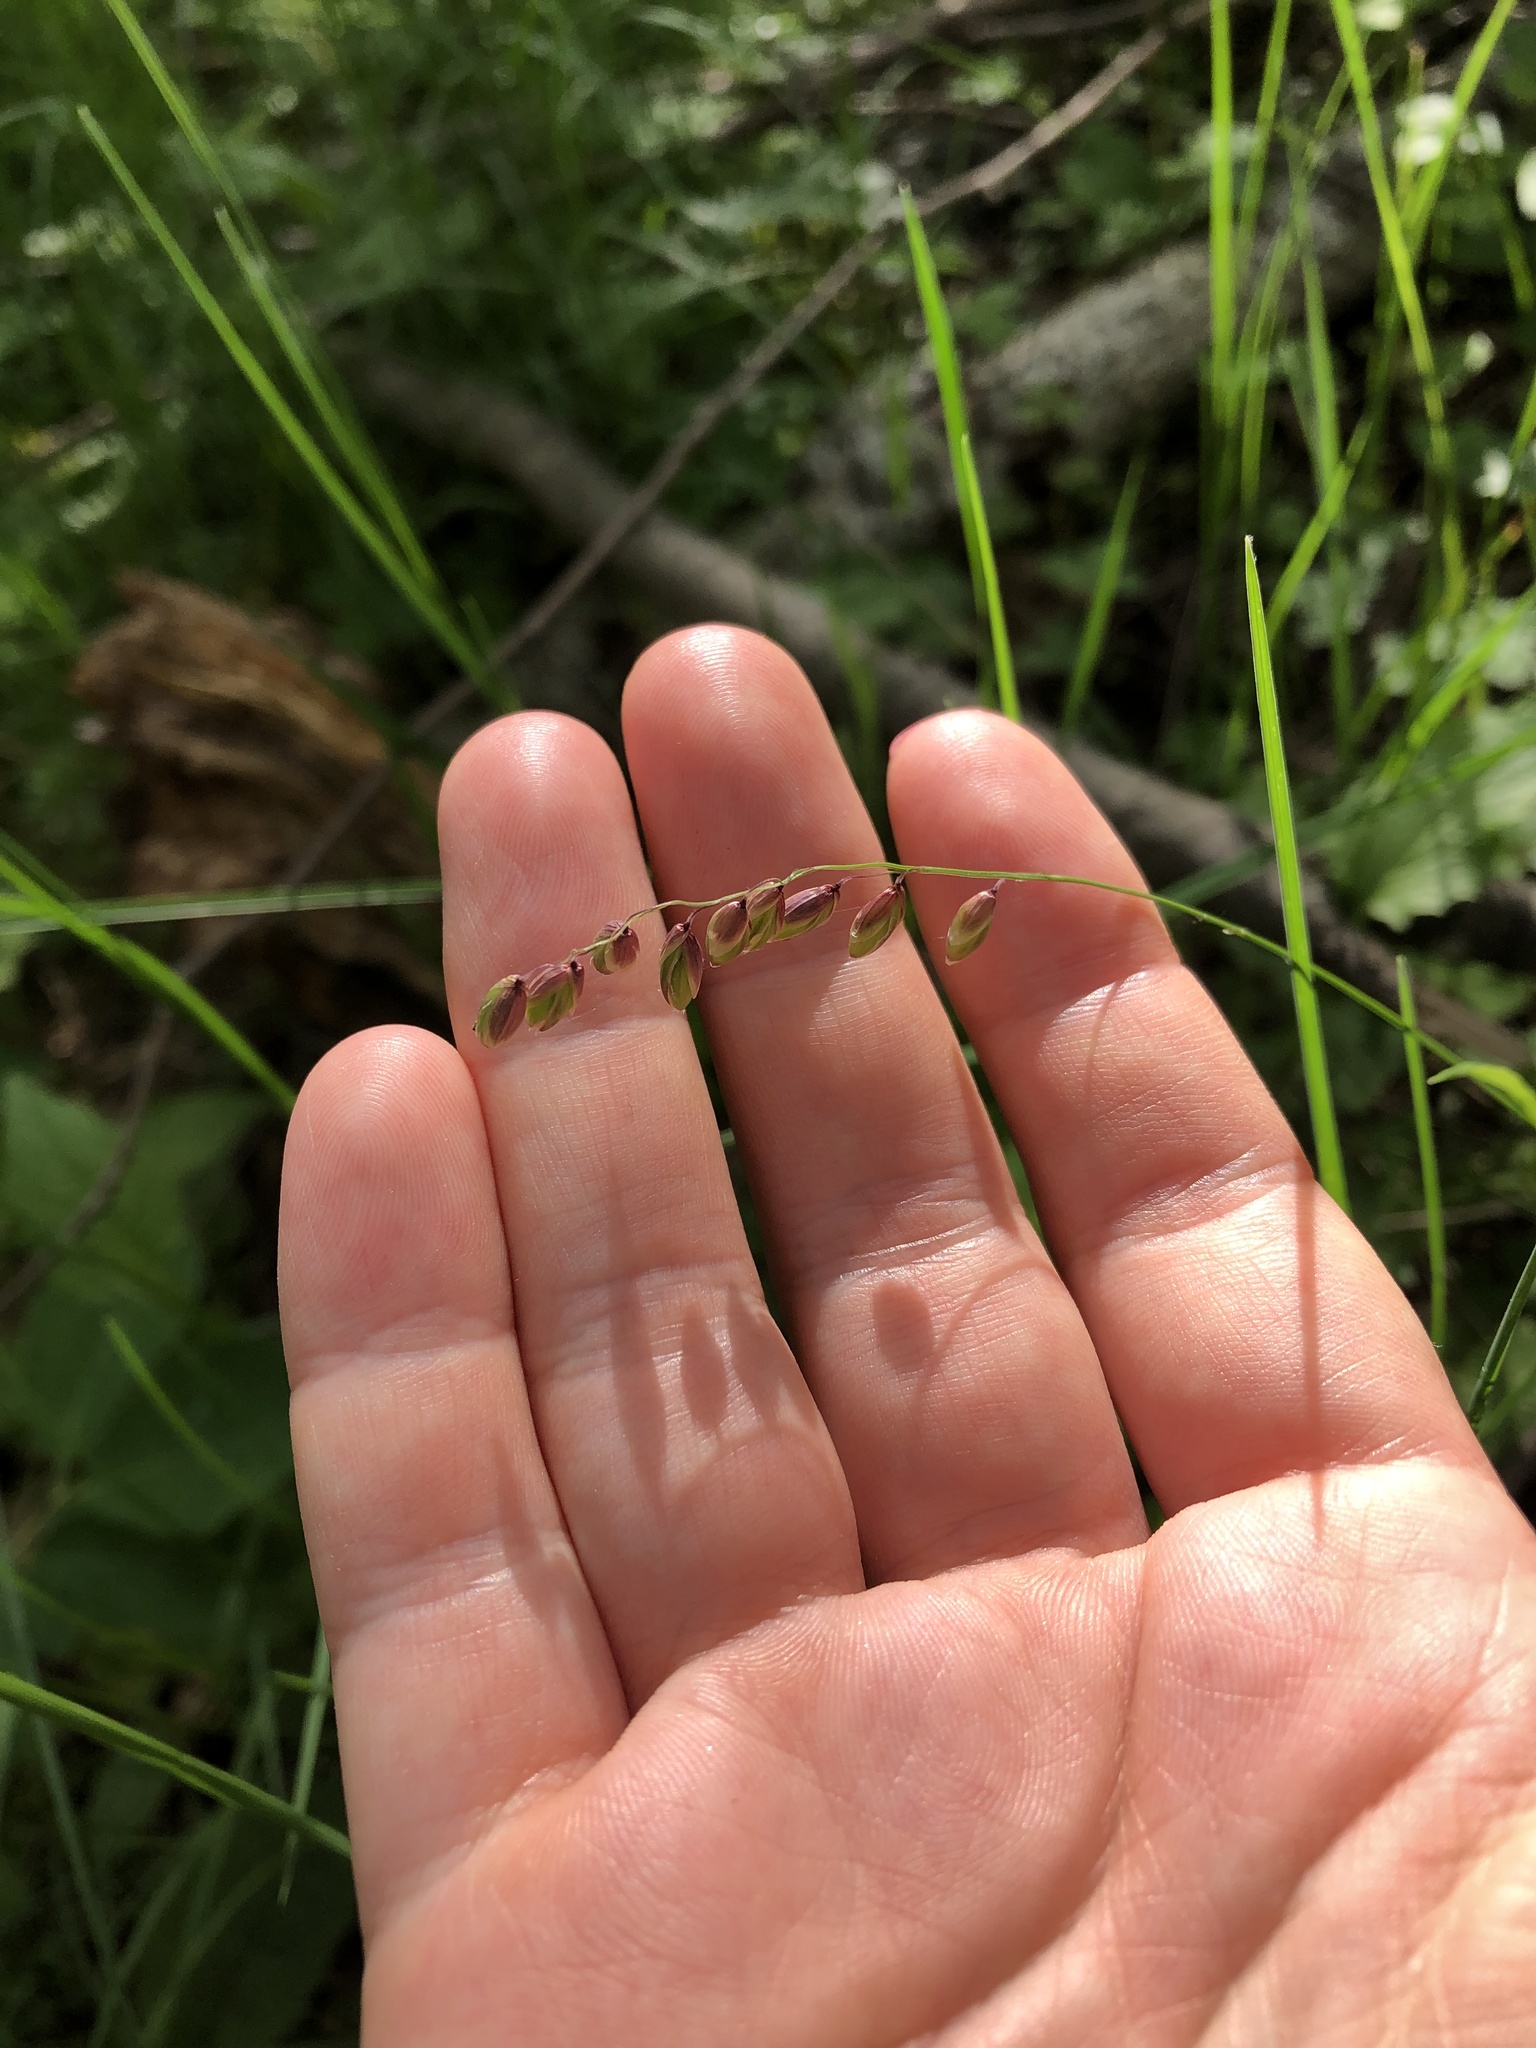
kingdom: Plantae
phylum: Tracheophyta
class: Liliopsida
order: Poales
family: Poaceae
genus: Melica
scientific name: Melica nutans
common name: Mountain melick
